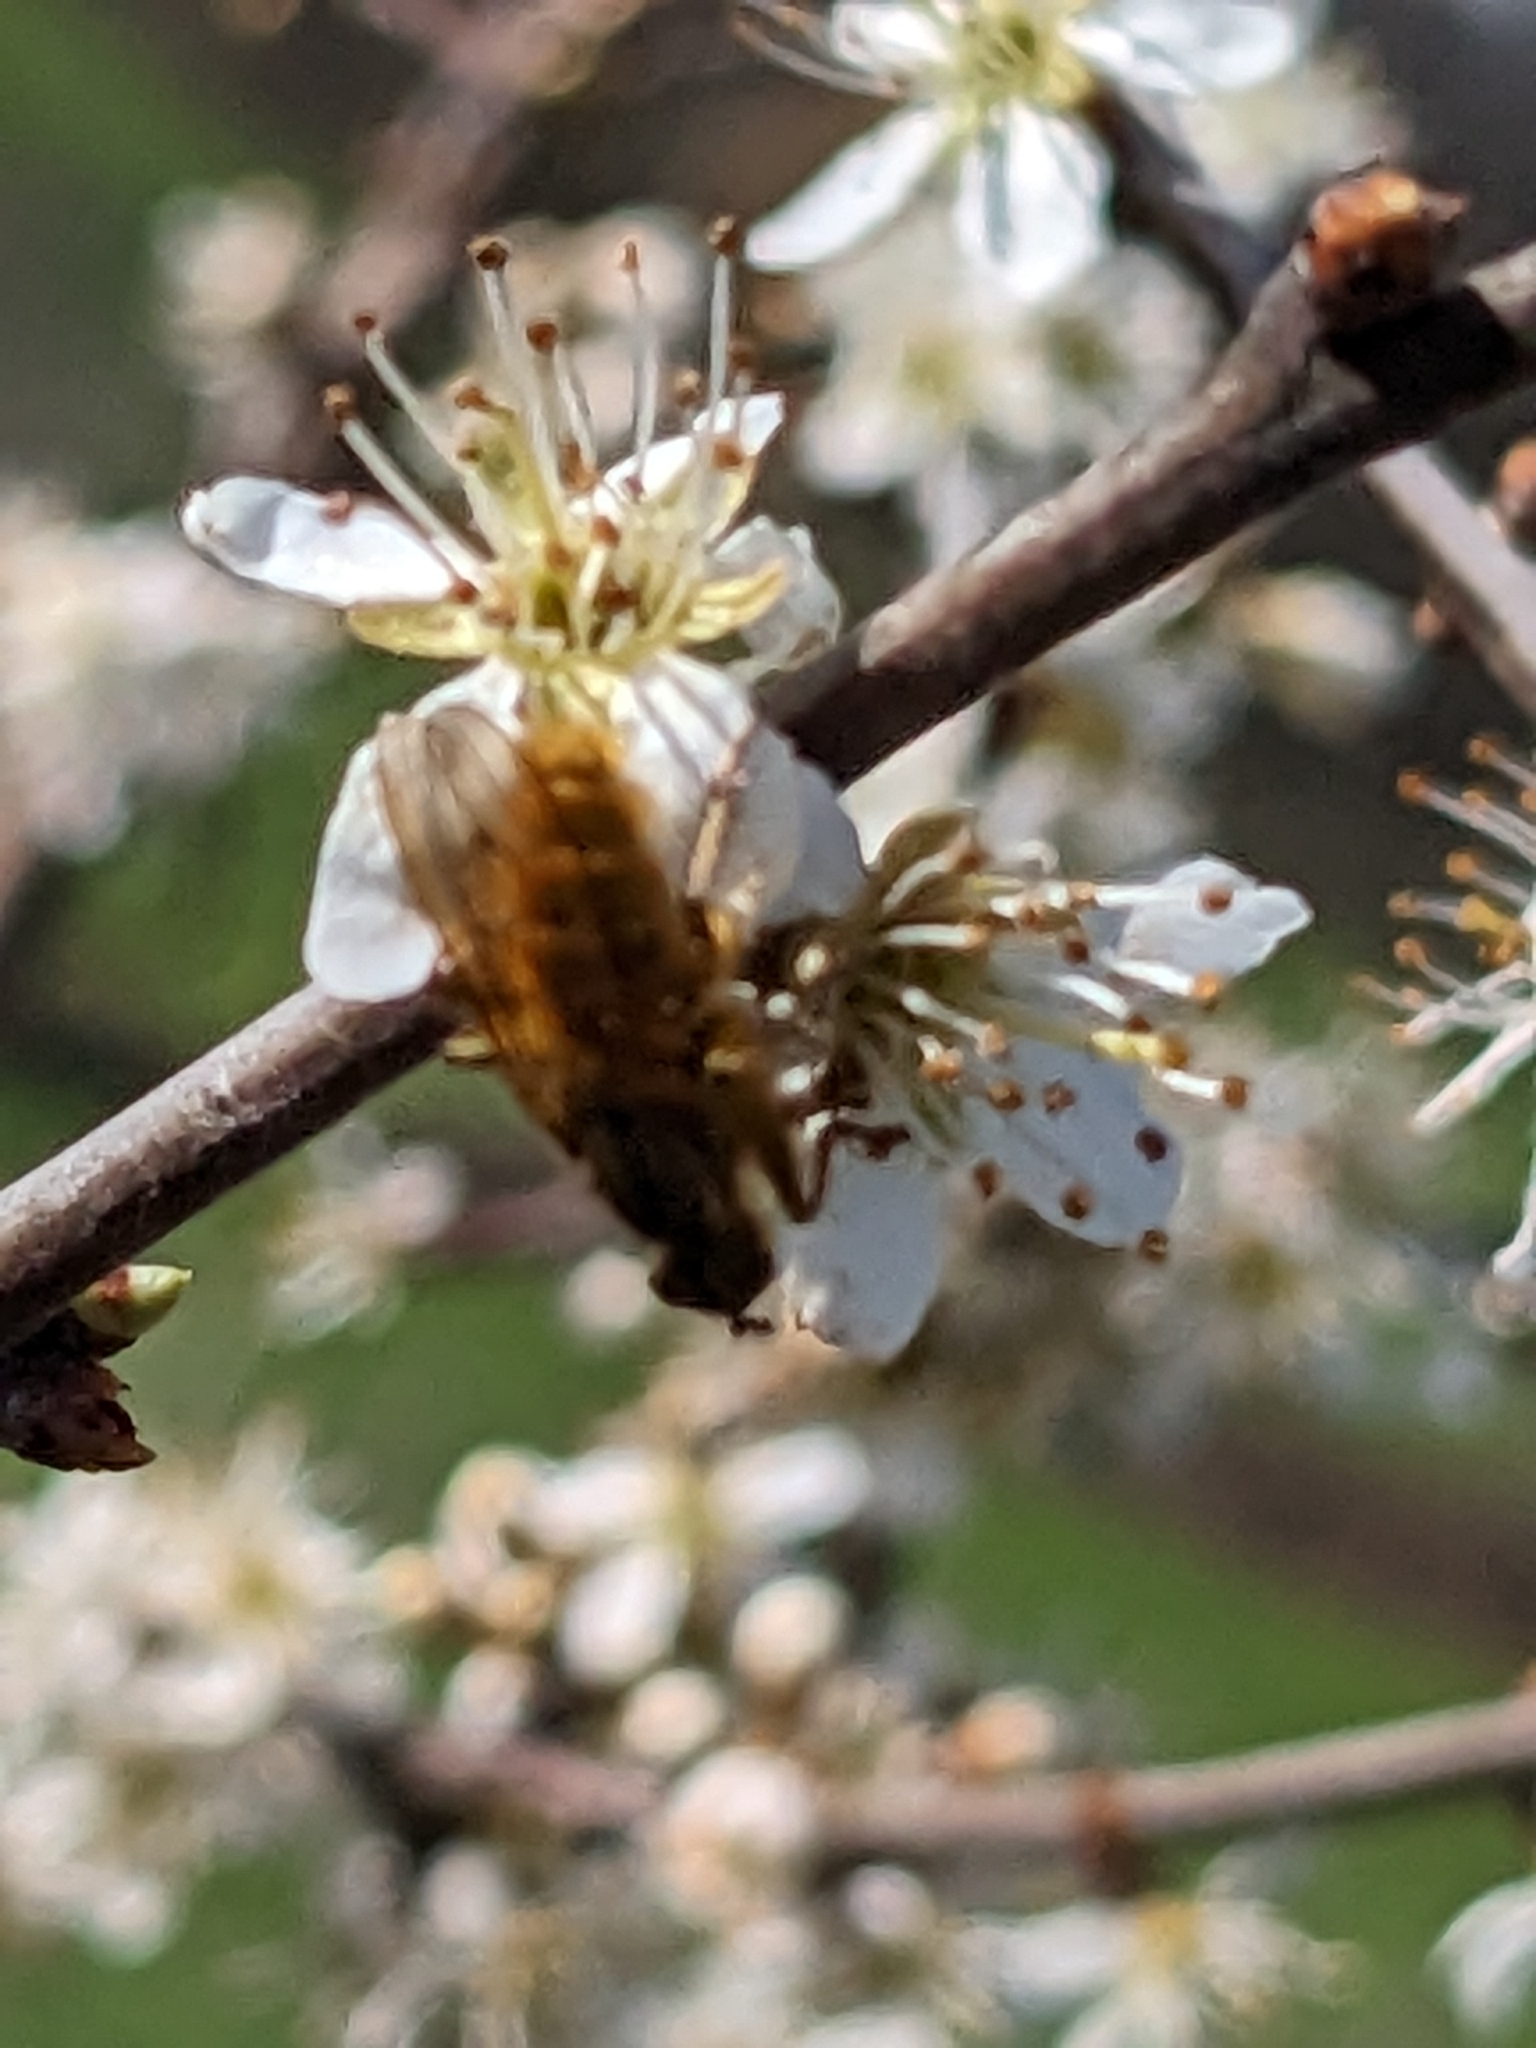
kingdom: Animalia
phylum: Arthropoda
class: Insecta
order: Diptera
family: Scathophagidae
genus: Scathophaga
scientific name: Scathophaga stercoraria
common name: Yellow dung fly
